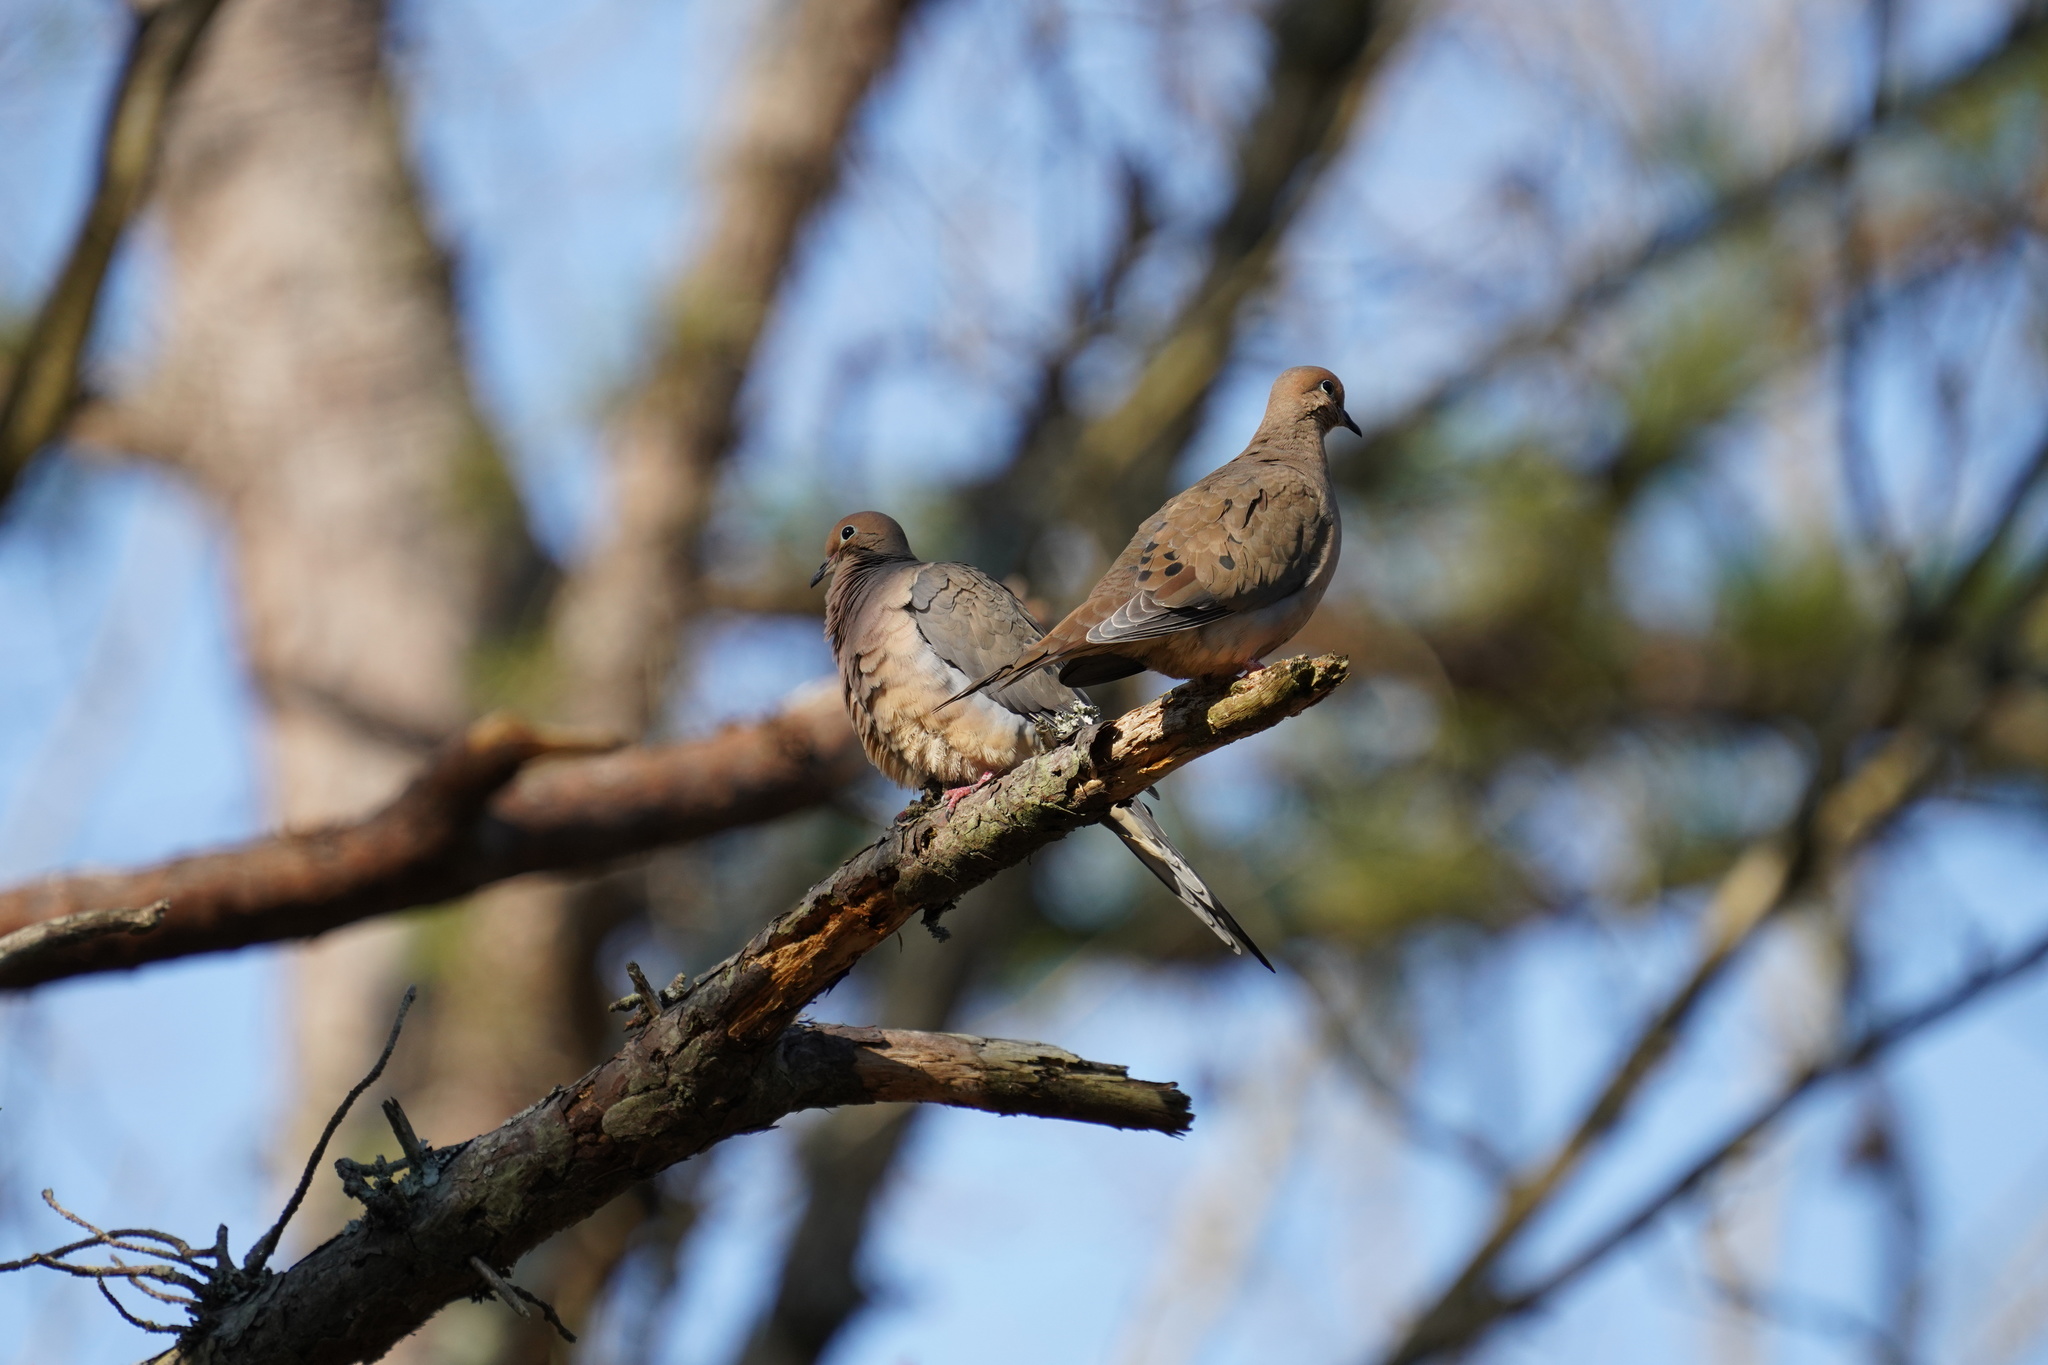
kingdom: Animalia
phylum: Chordata
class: Aves
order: Columbiformes
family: Columbidae
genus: Zenaida
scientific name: Zenaida macroura
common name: Mourning dove
